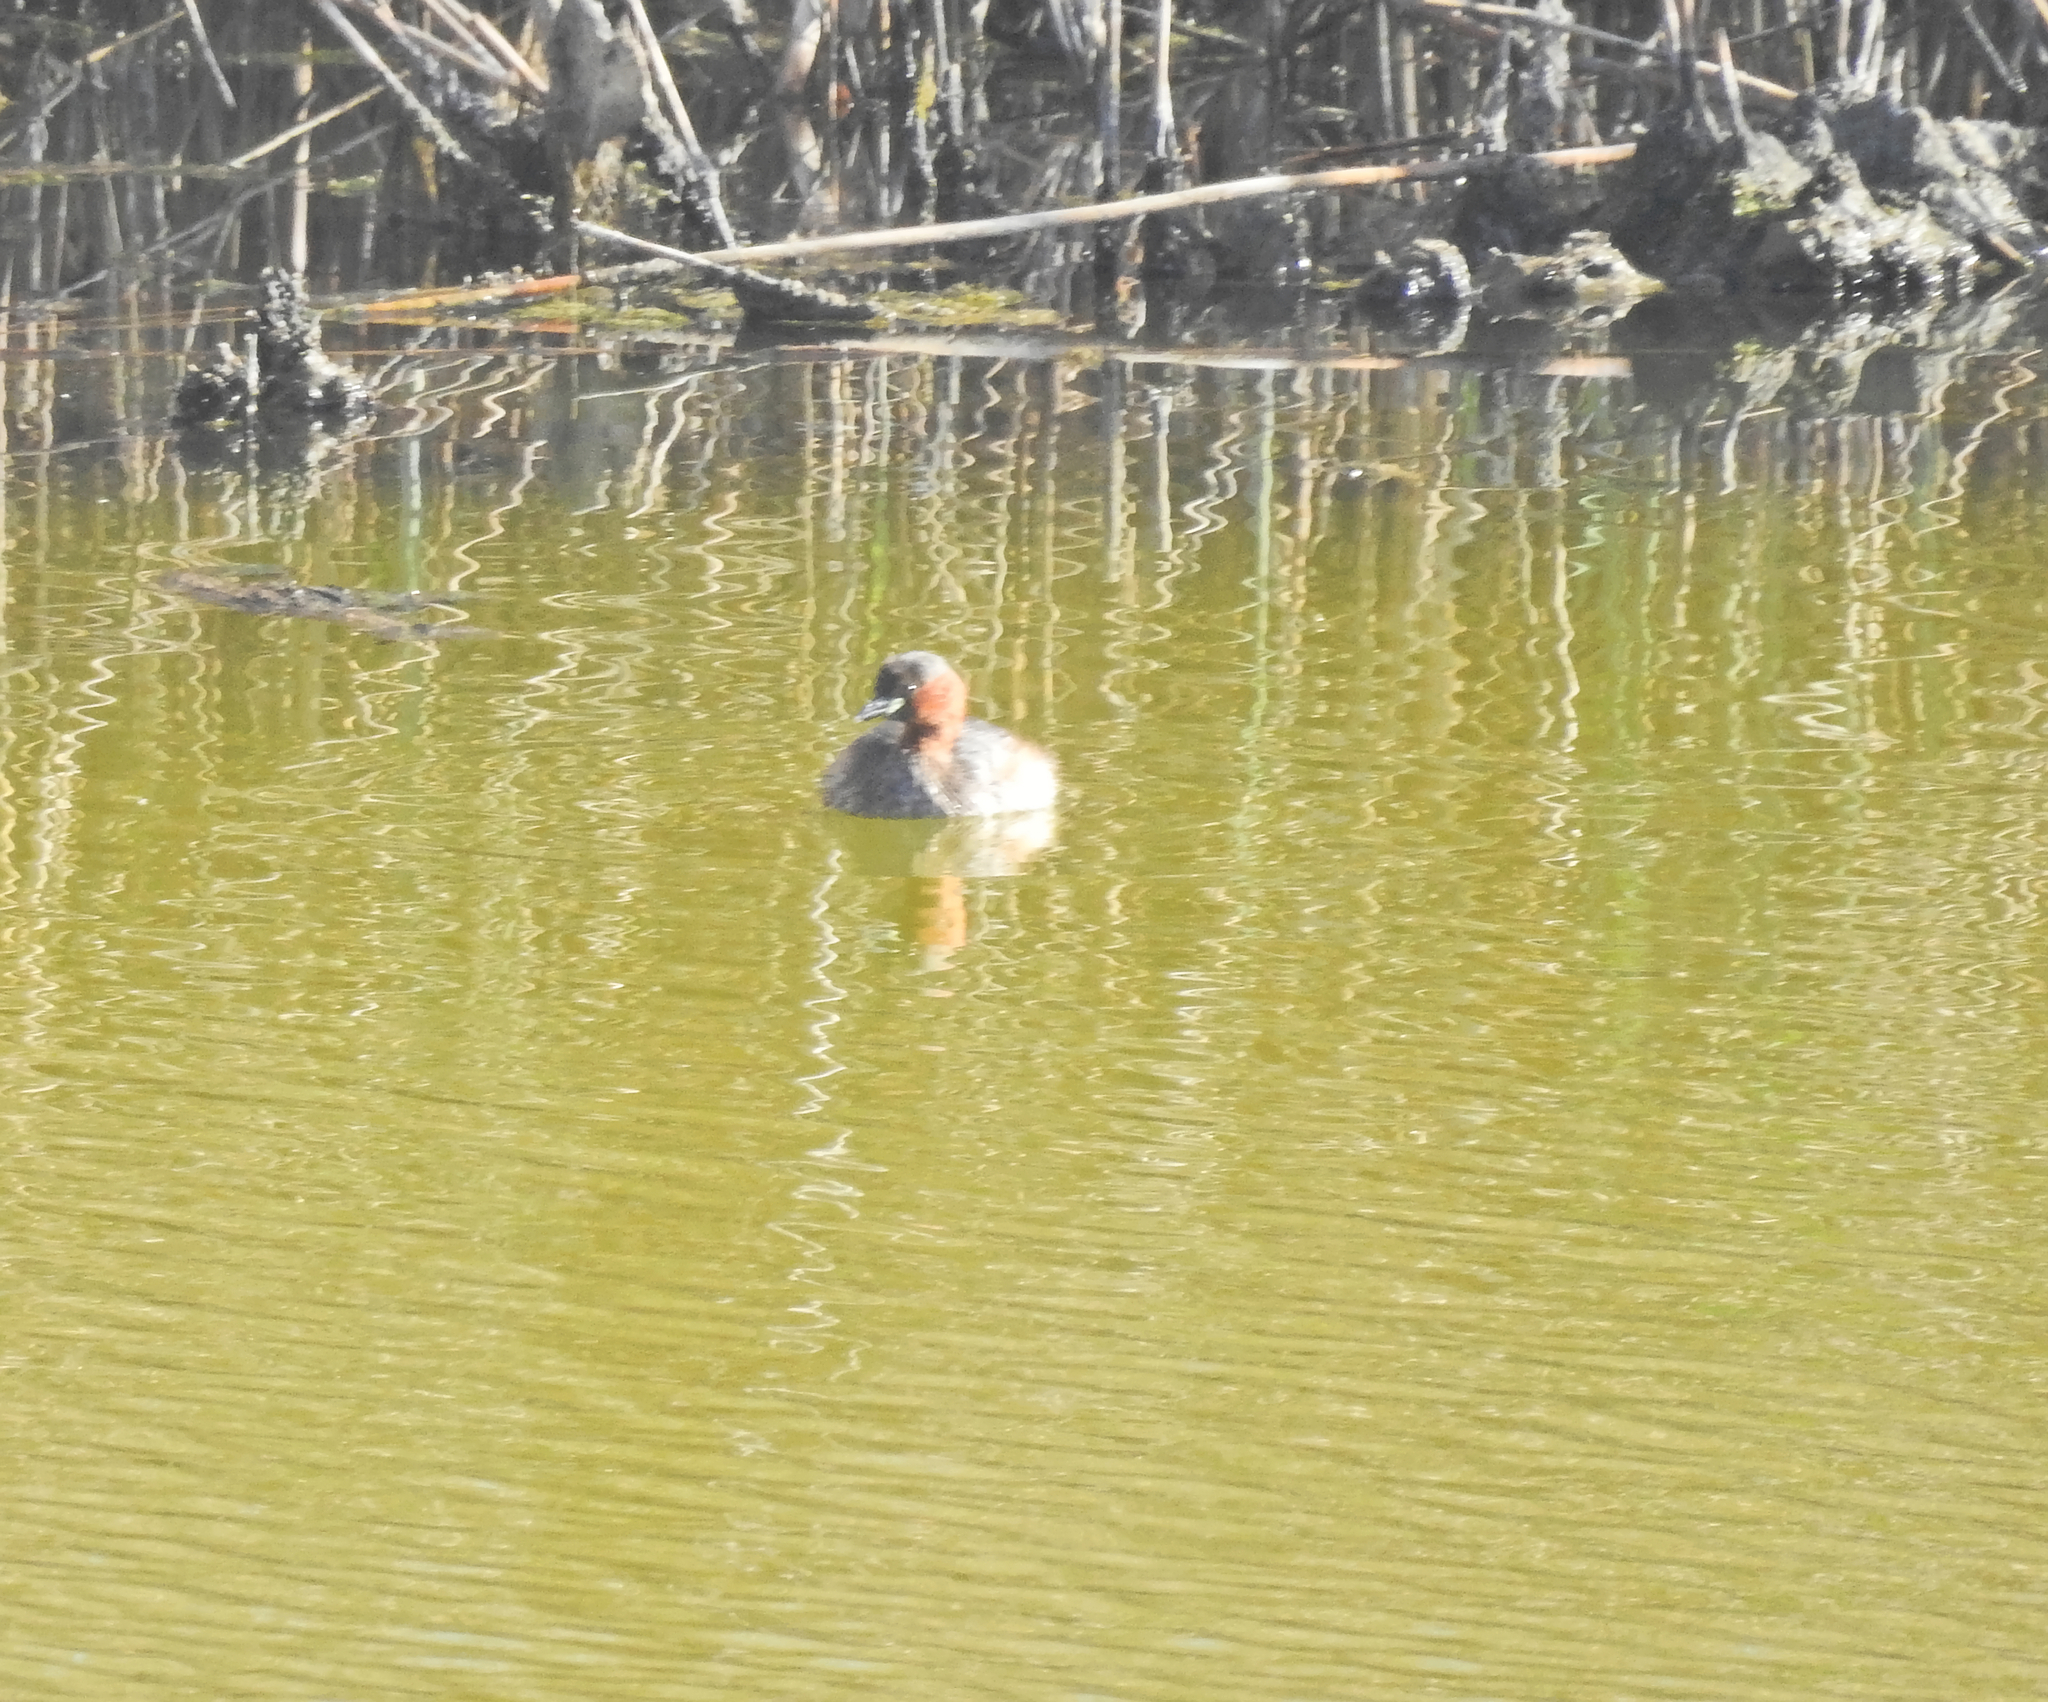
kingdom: Animalia
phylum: Chordata
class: Aves
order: Podicipediformes
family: Podicipedidae
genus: Tachybaptus
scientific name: Tachybaptus ruficollis
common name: Little grebe
